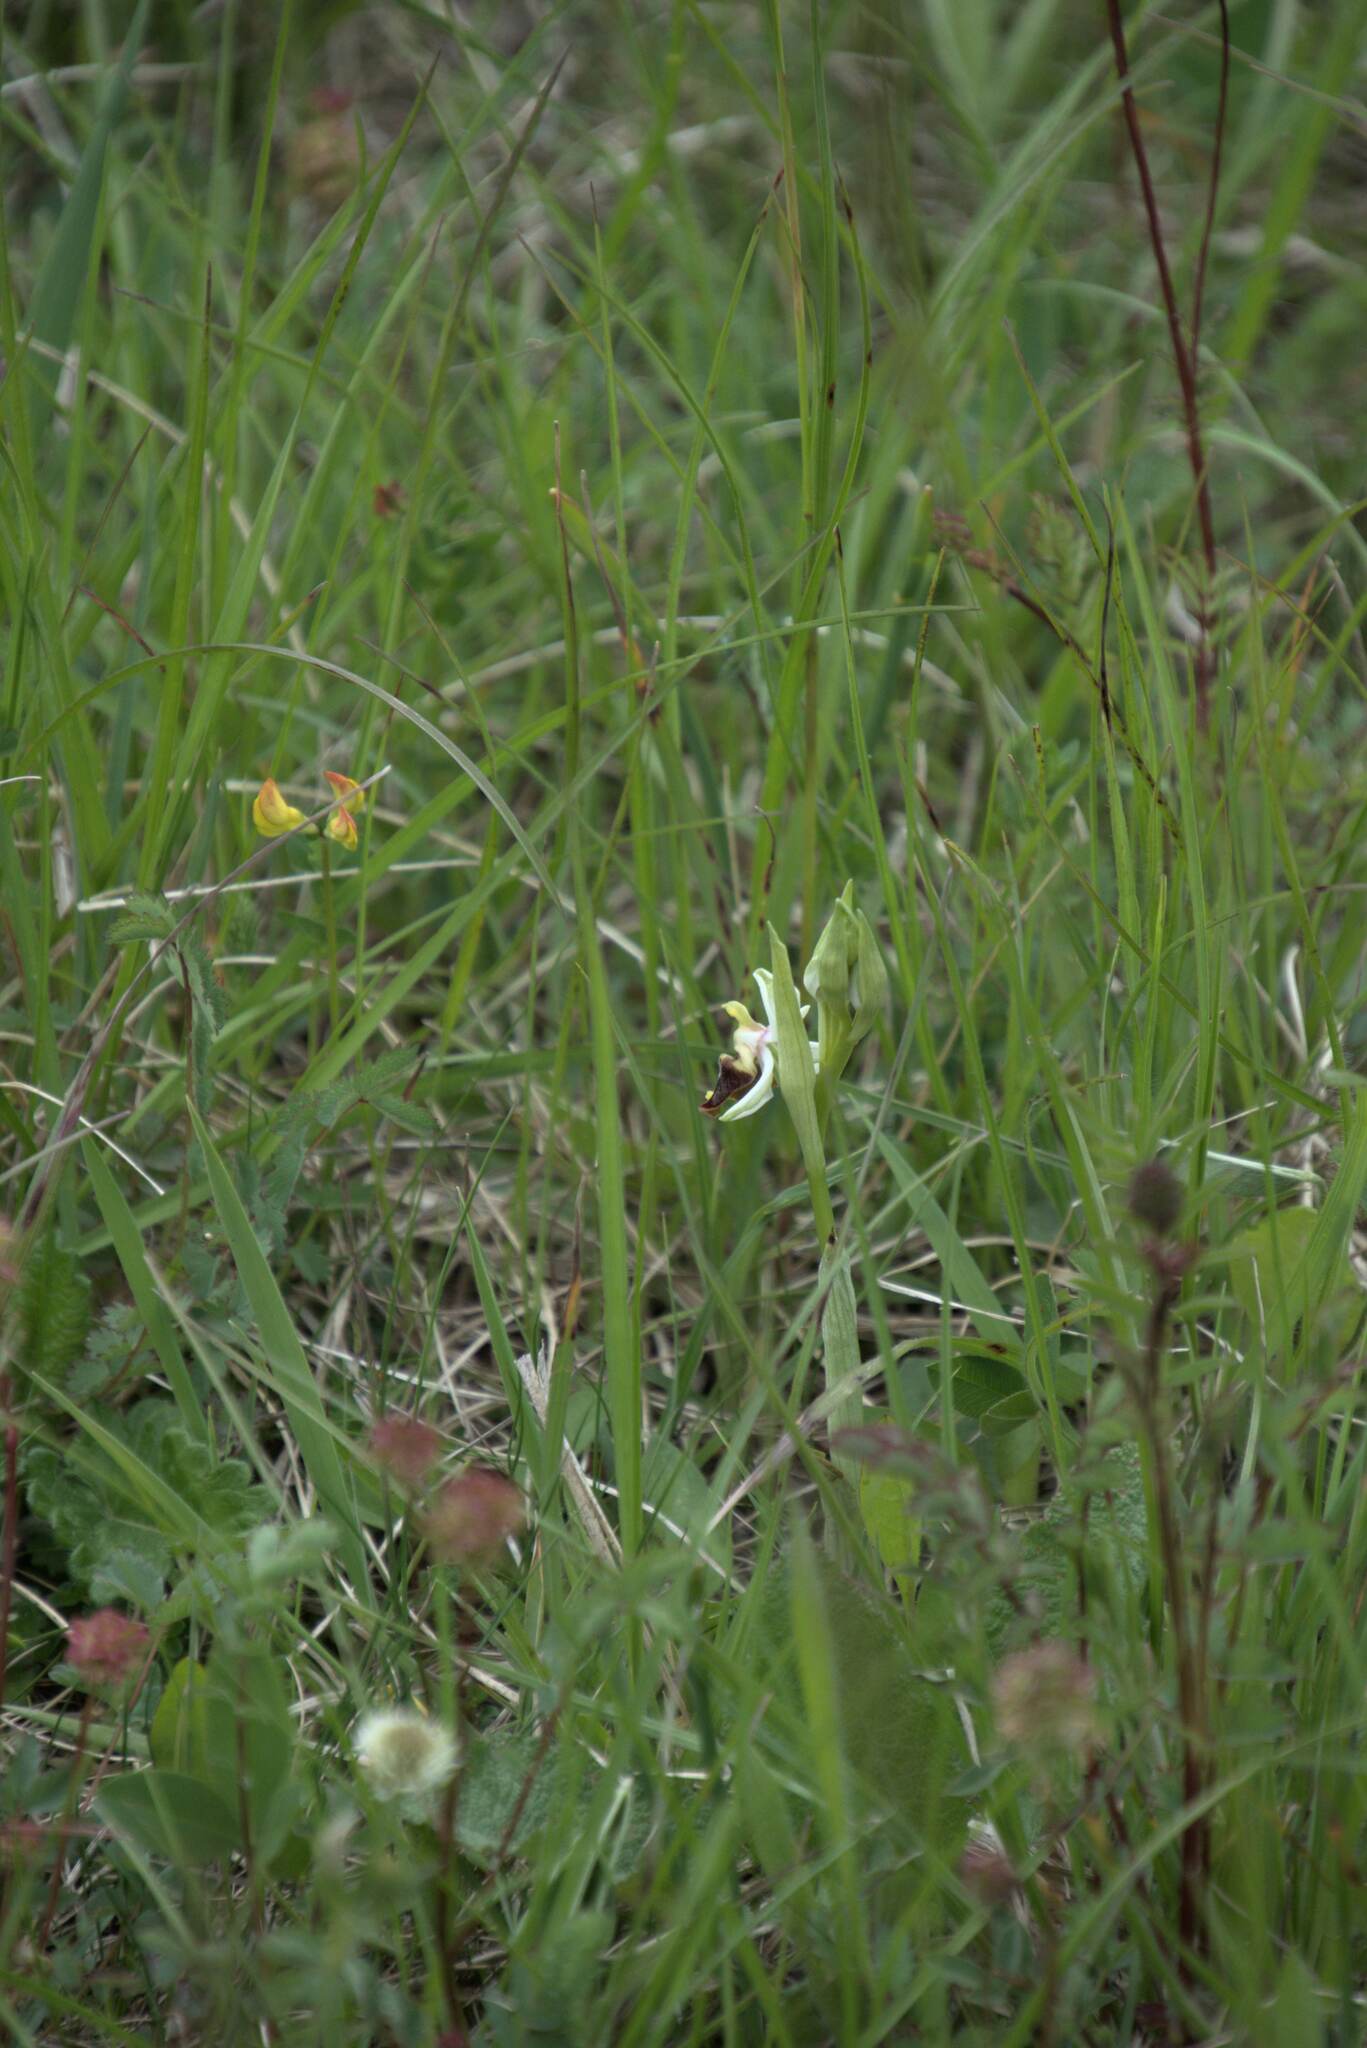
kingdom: Plantae
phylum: Tracheophyta
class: Liliopsida
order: Asparagales
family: Orchidaceae
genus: Ophrys
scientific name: Ophrys holosericea
